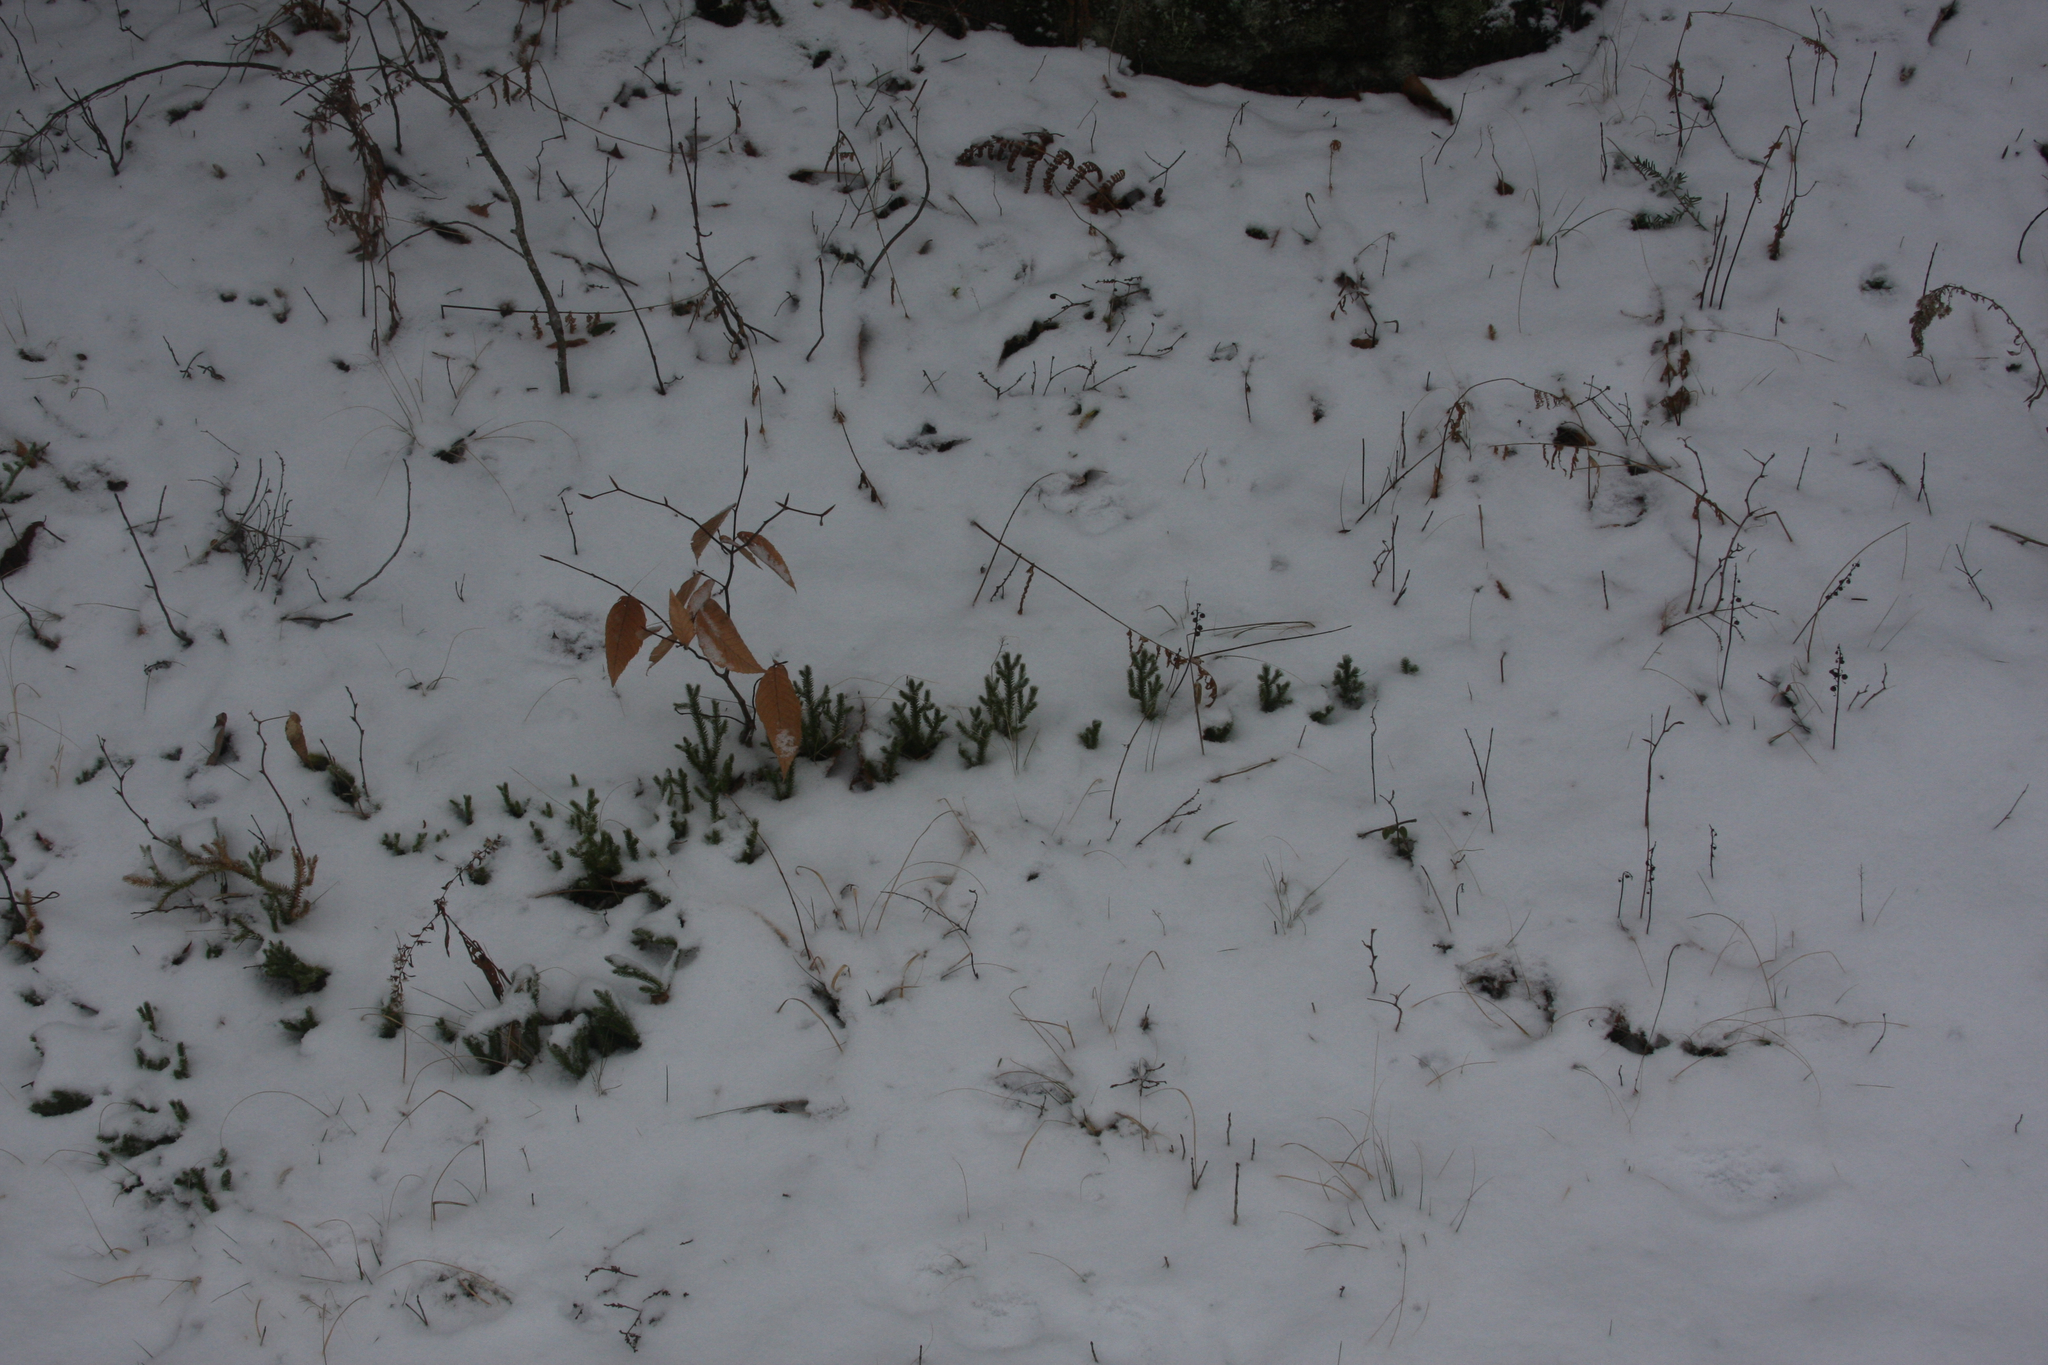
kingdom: Plantae
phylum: Tracheophyta
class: Lycopodiopsida
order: Lycopodiales
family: Lycopodiaceae
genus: Lycopodium
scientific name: Lycopodium clavatum
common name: Stag's-horn clubmoss
